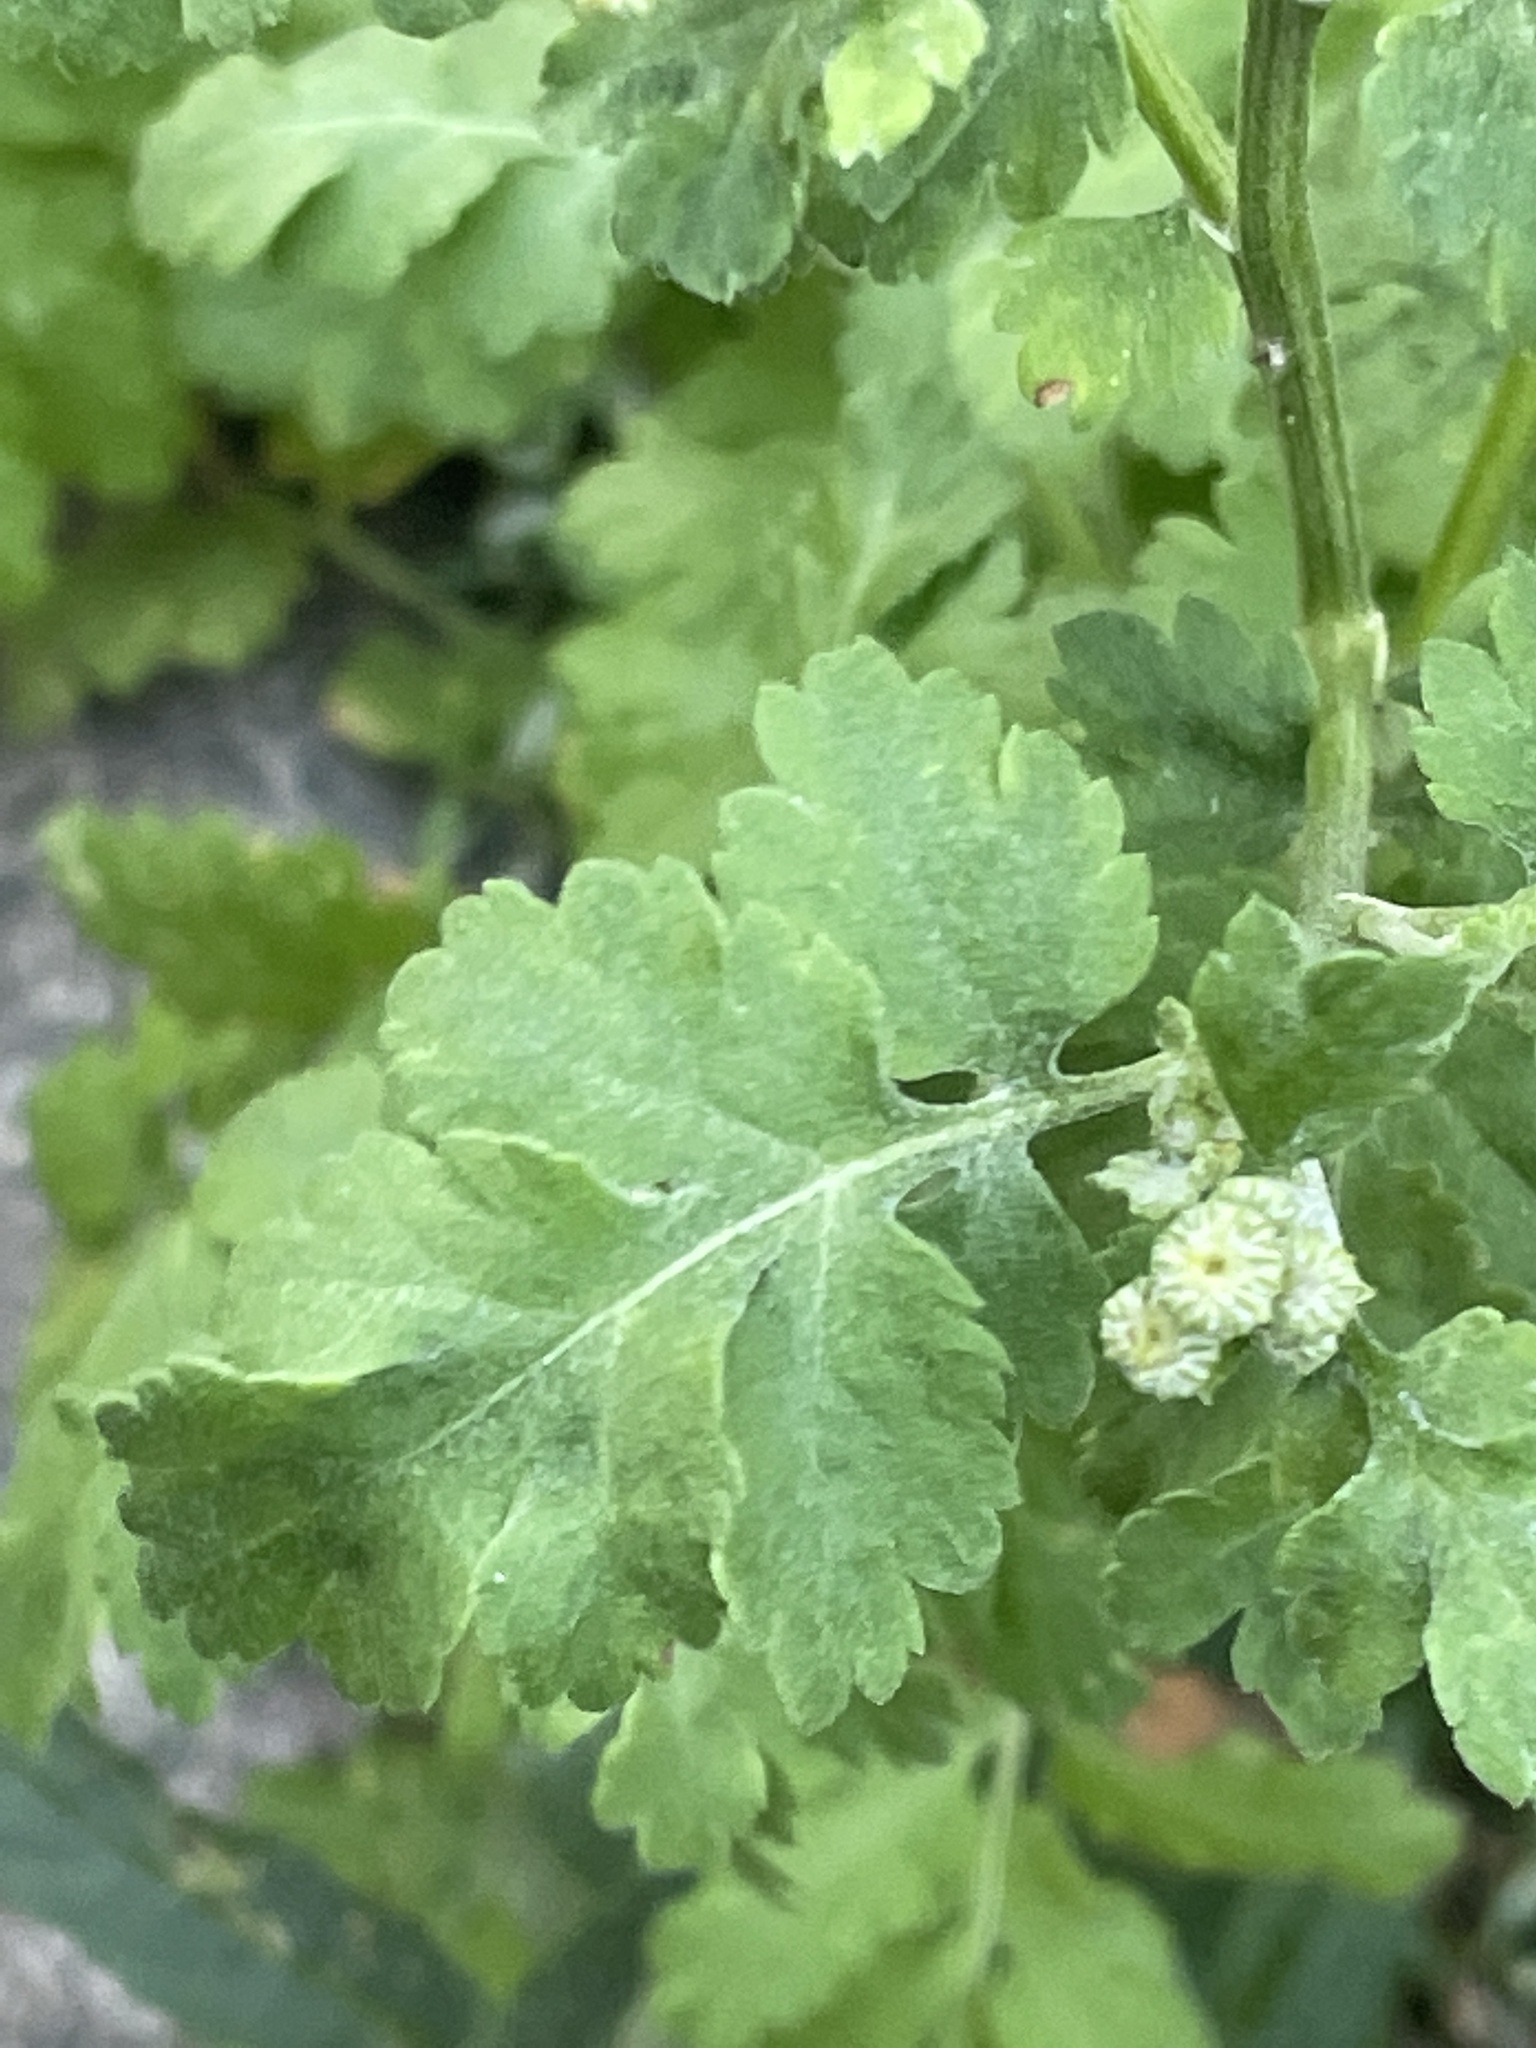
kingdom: Plantae
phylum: Tracheophyta
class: Magnoliopsida
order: Asterales
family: Asteraceae
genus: Tanacetum
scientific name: Tanacetum parthenium
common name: Feverfew
